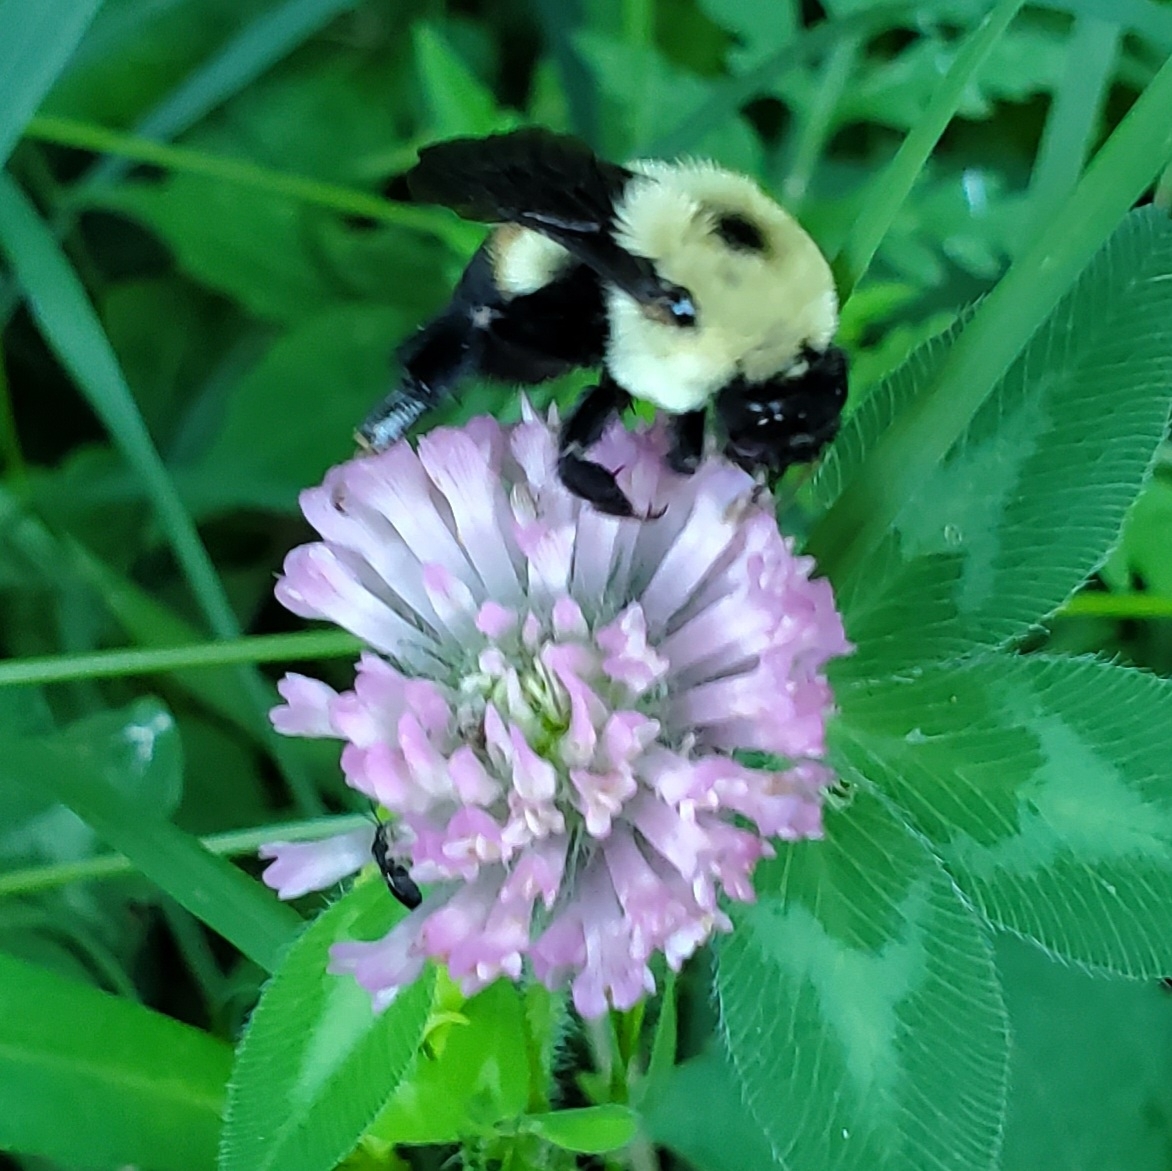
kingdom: Animalia
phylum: Arthropoda
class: Insecta
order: Hymenoptera
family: Apidae
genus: Bombus
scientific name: Bombus griseocollis
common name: Brown-belted bumble bee
